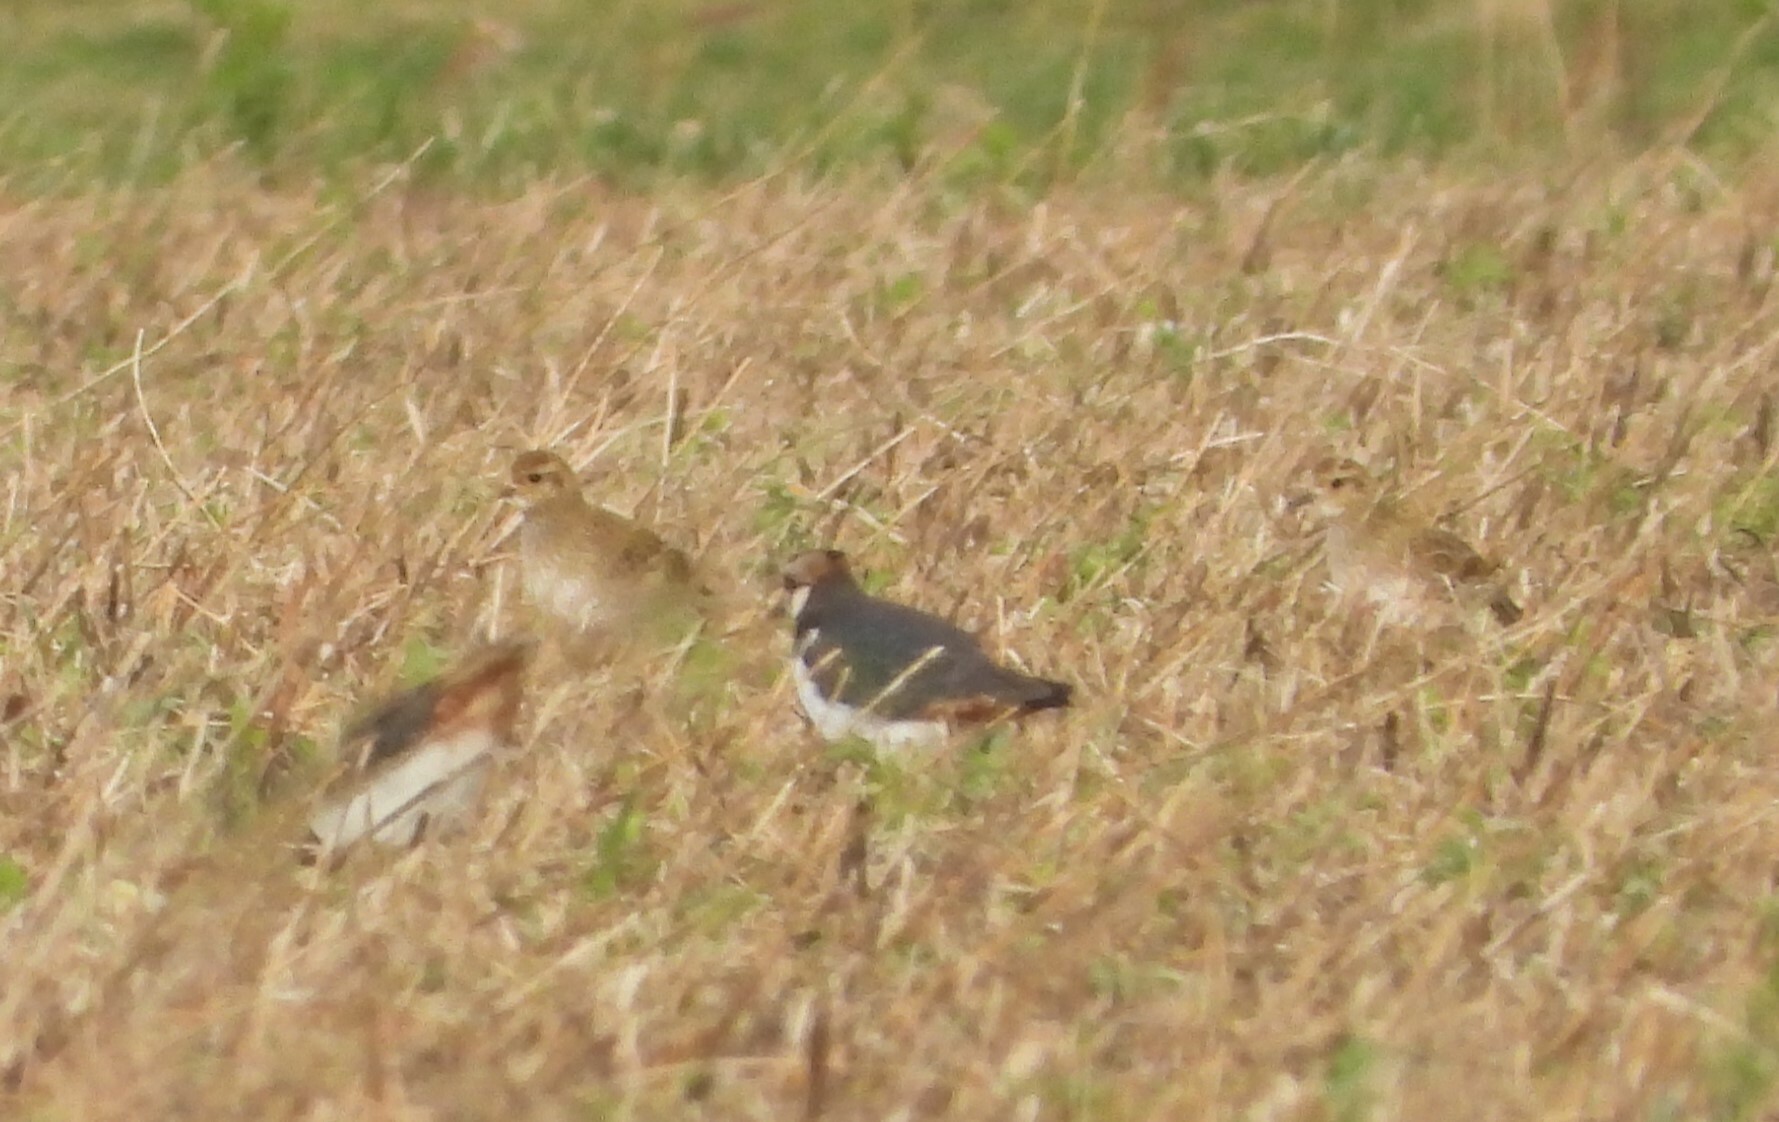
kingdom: Animalia
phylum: Chordata
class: Aves
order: Charadriiformes
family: Charadriidae
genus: Pluvialis
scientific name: Pluvialis apricaria
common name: European golden plover
